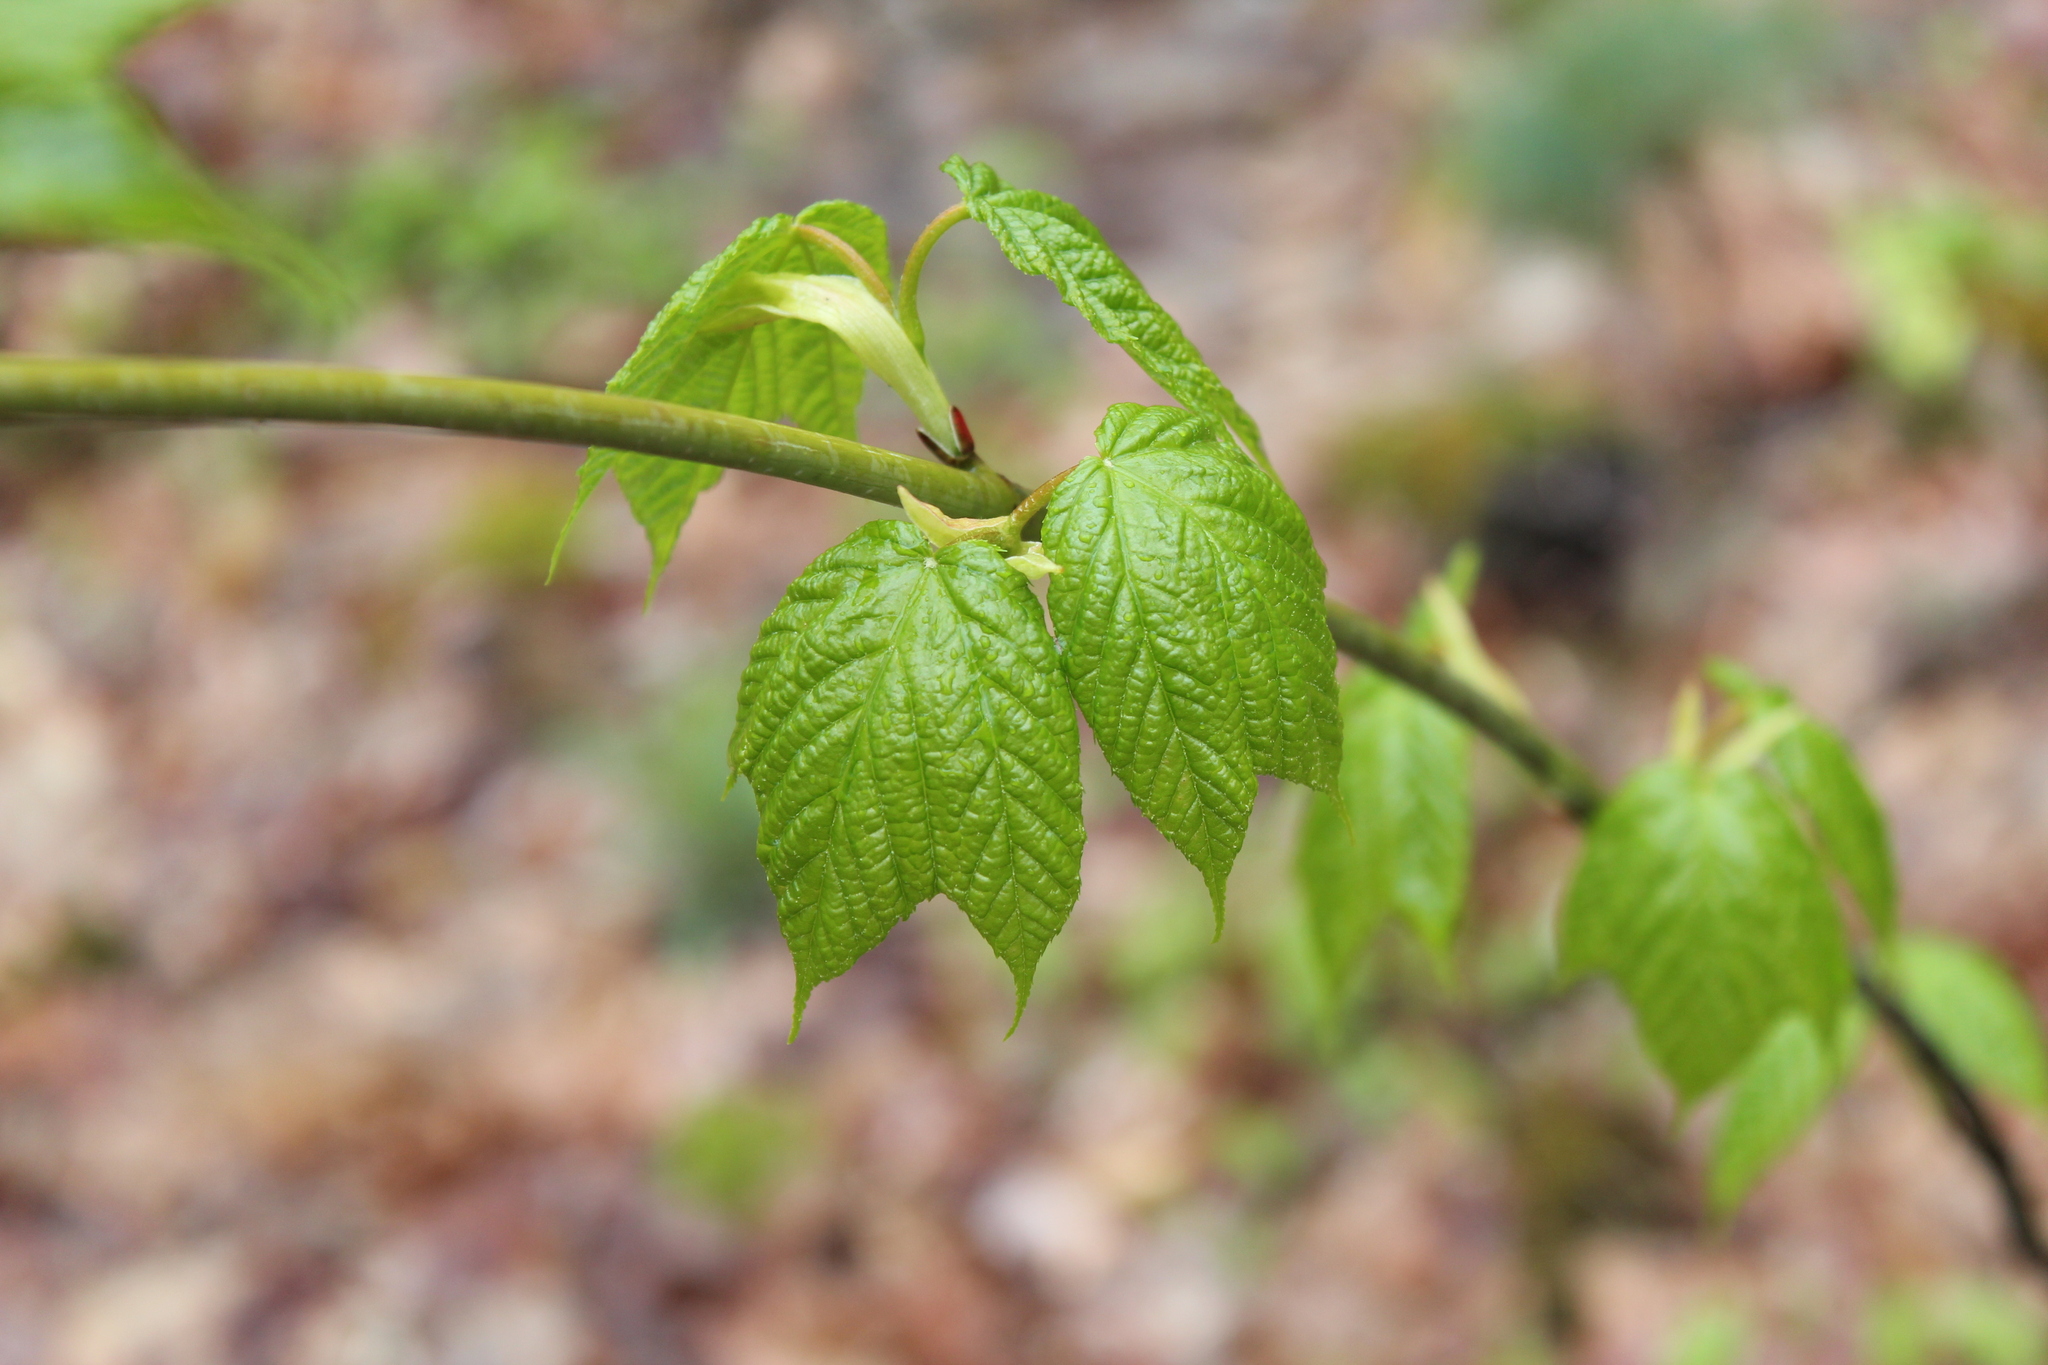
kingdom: Plantae
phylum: Tracheophyta
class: Magnoliopsida
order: Sapindales
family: Sapindaceae
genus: Acer
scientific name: Acer pensylvanicum
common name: Moosewood
